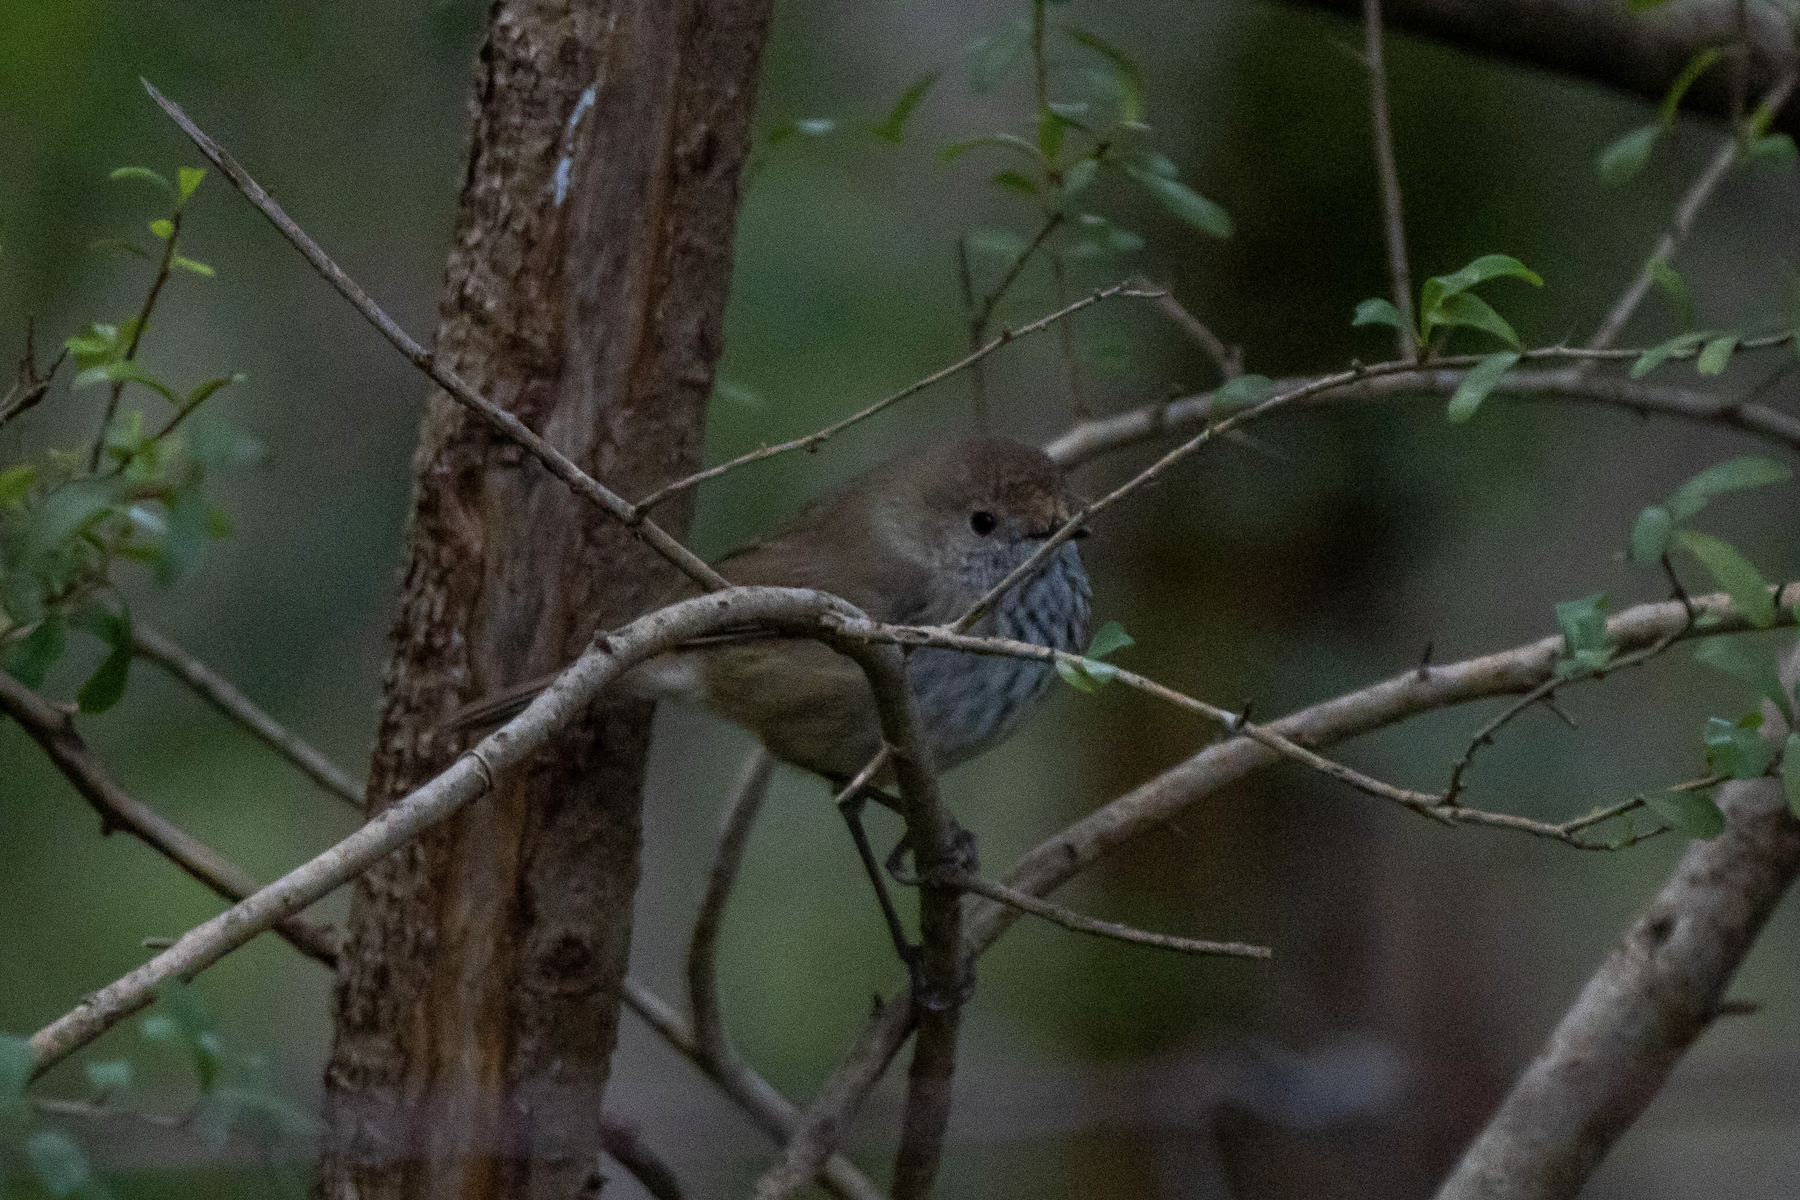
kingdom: Animalia
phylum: Chordata
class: Aves
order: Passeriformes
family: Acanthizidae
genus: Acanthiza
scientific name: Acanthiza pusilla
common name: Brown thornbill
